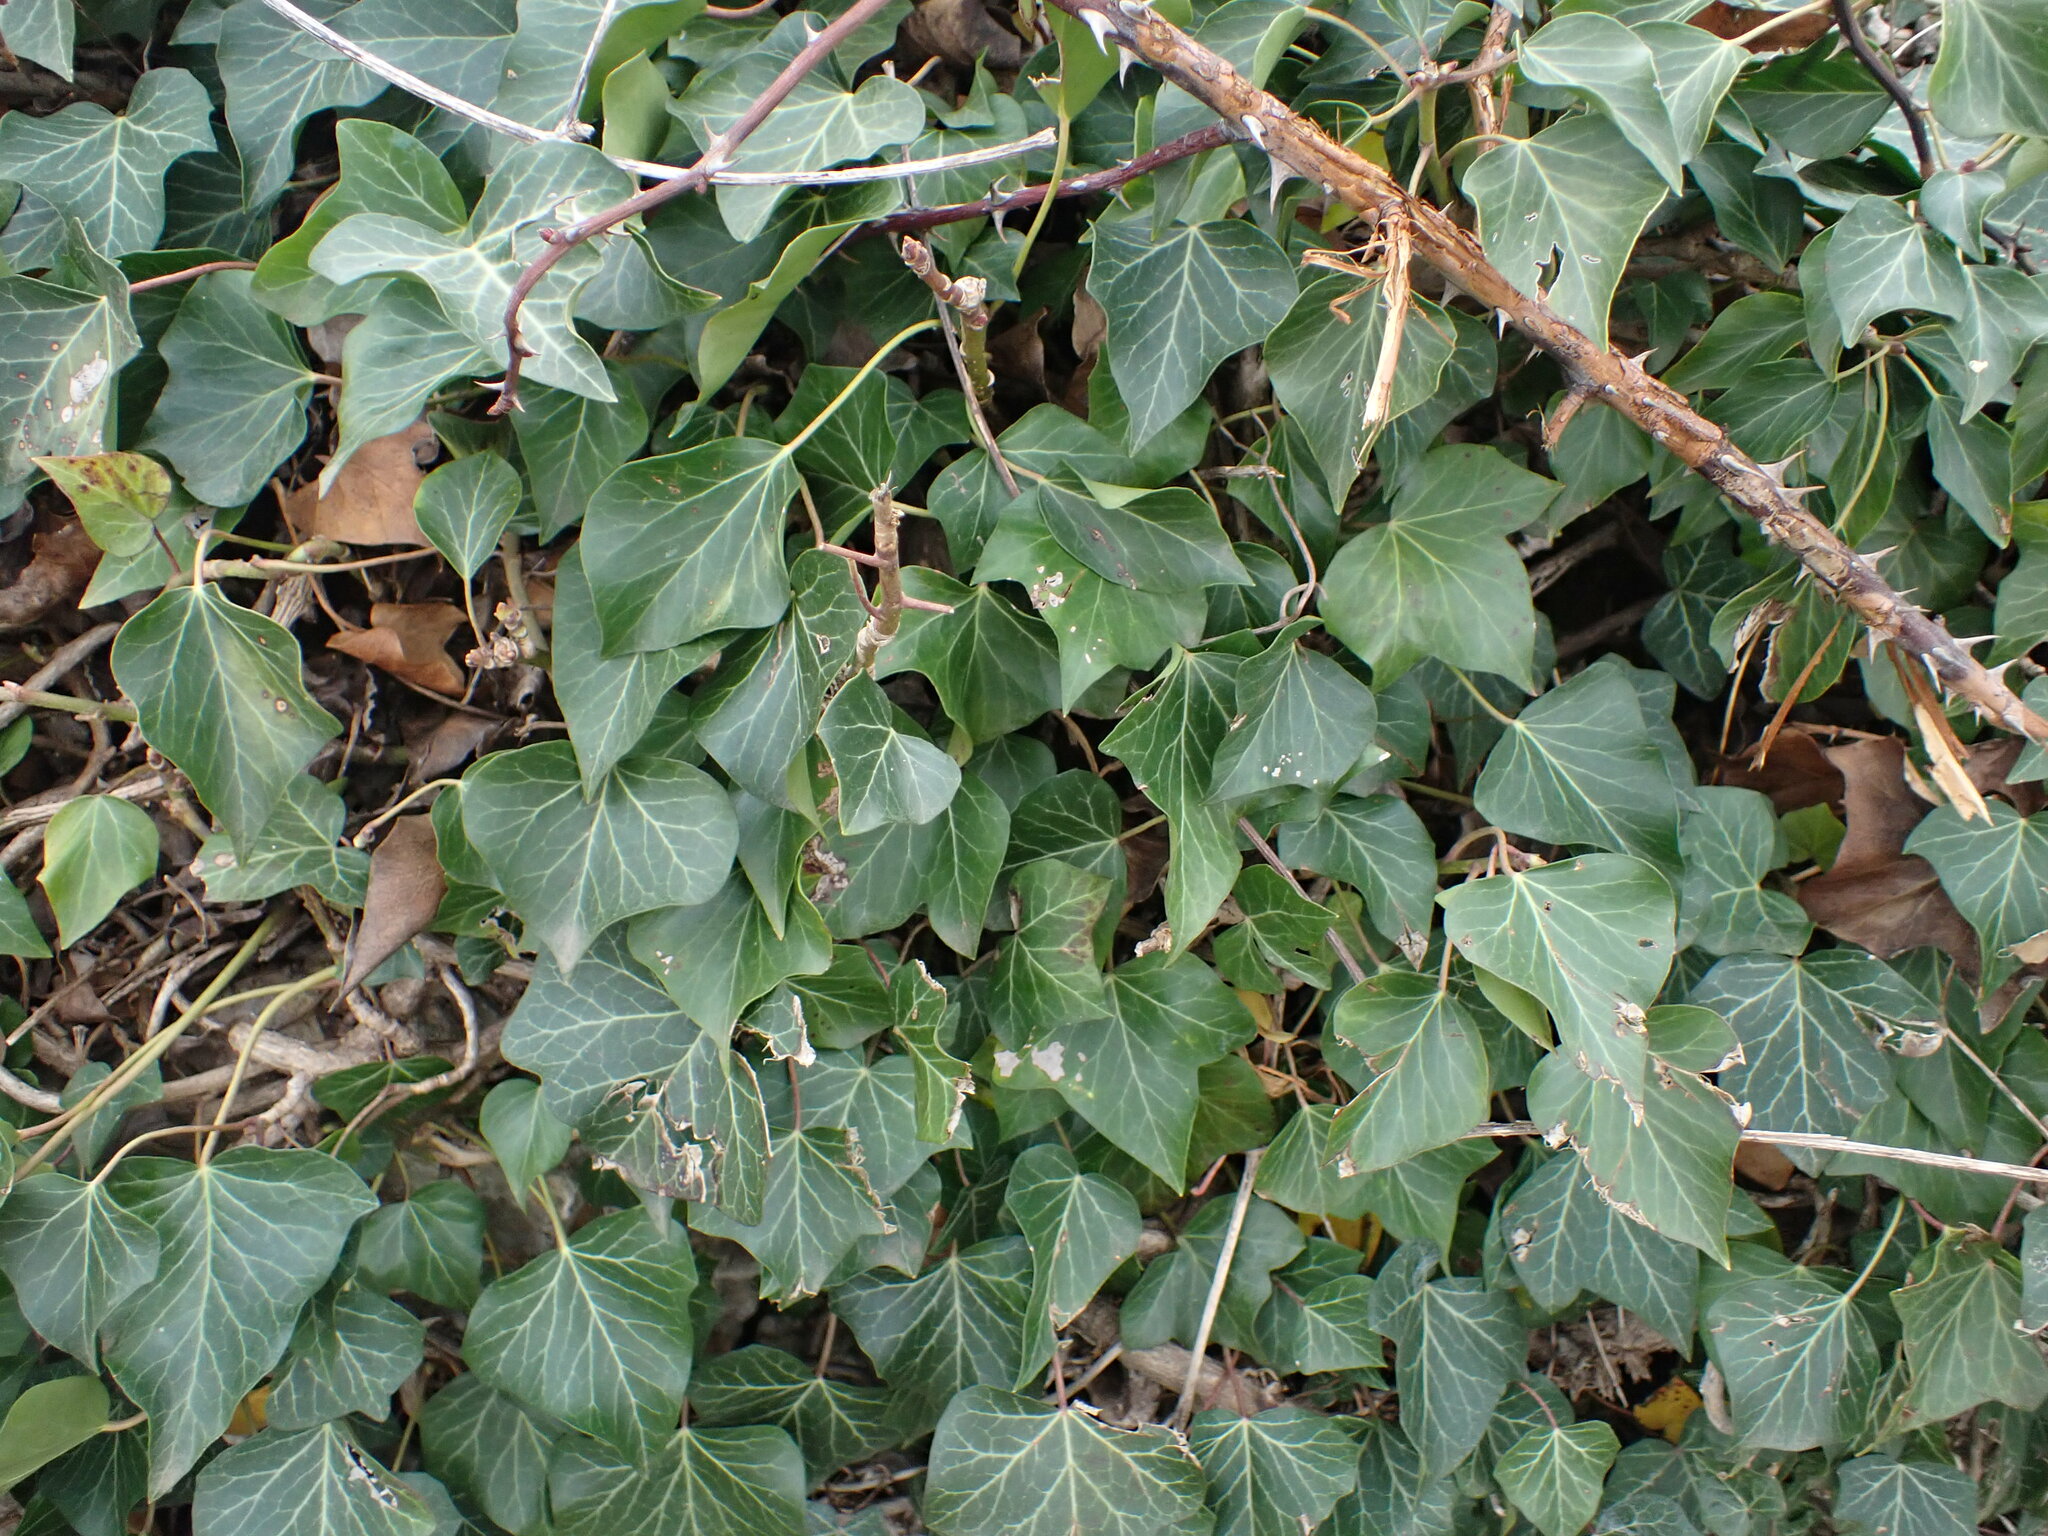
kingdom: Plantae
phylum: Tracheophyta
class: Magnoliopsida
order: Apiales
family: Araliaceae
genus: Hedera
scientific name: Hedera helix
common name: Ivy
